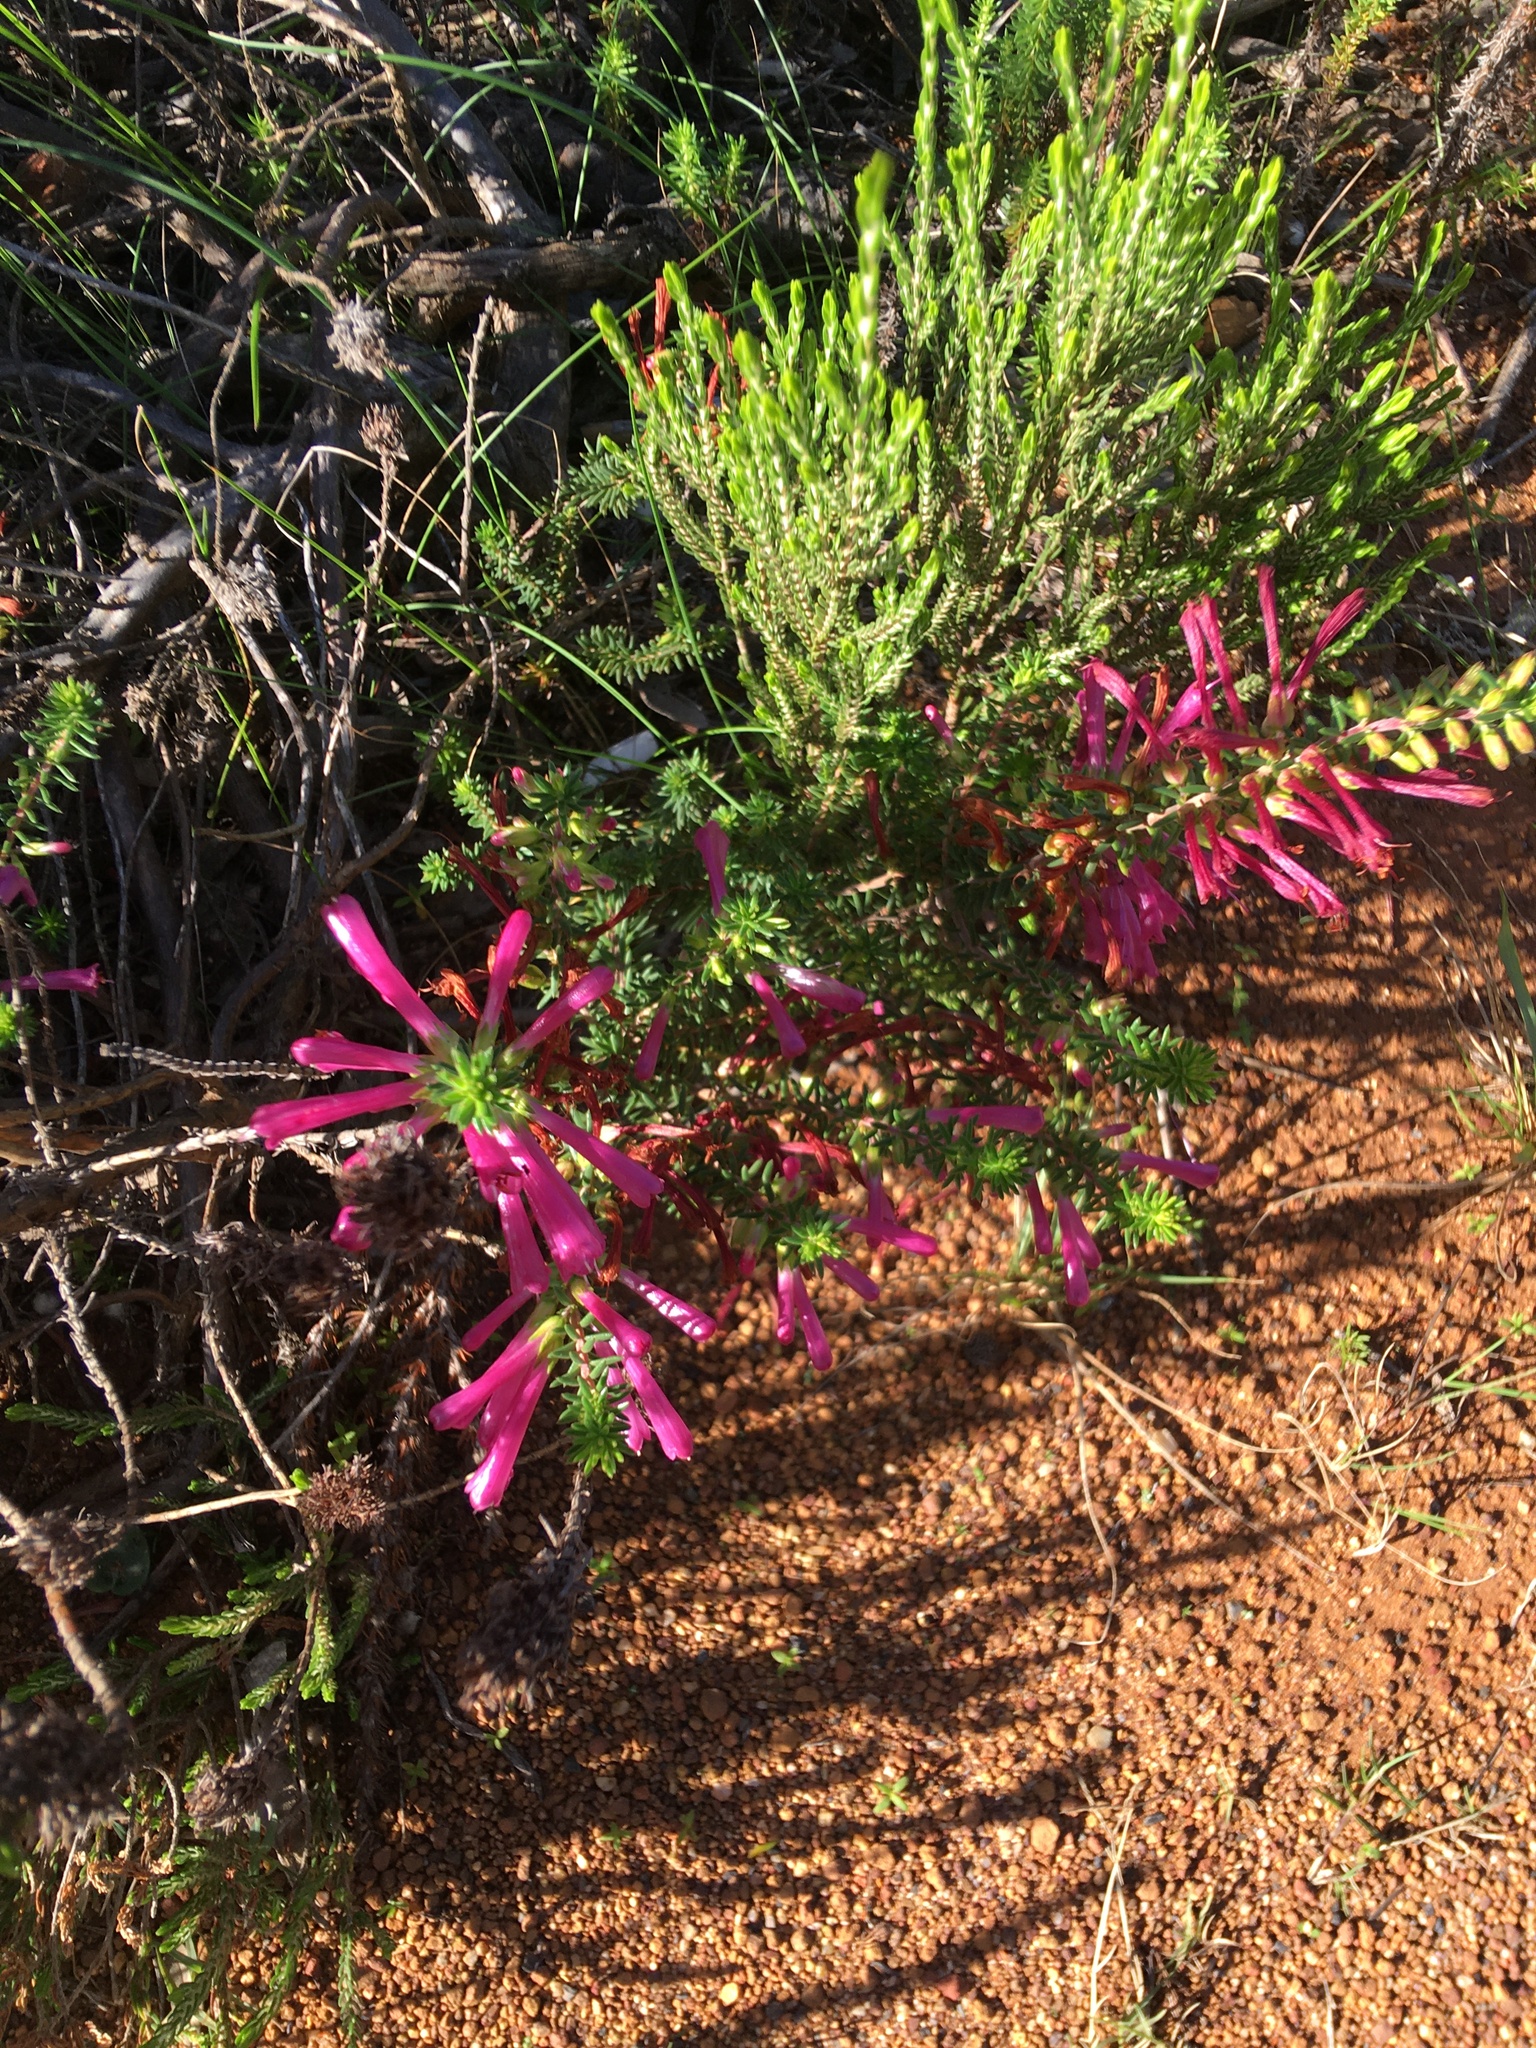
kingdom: Plantae
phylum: Tracheophyta
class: Magnoliopsida
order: Ericales
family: Ericaceae
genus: Erica
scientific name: Erica abietina
